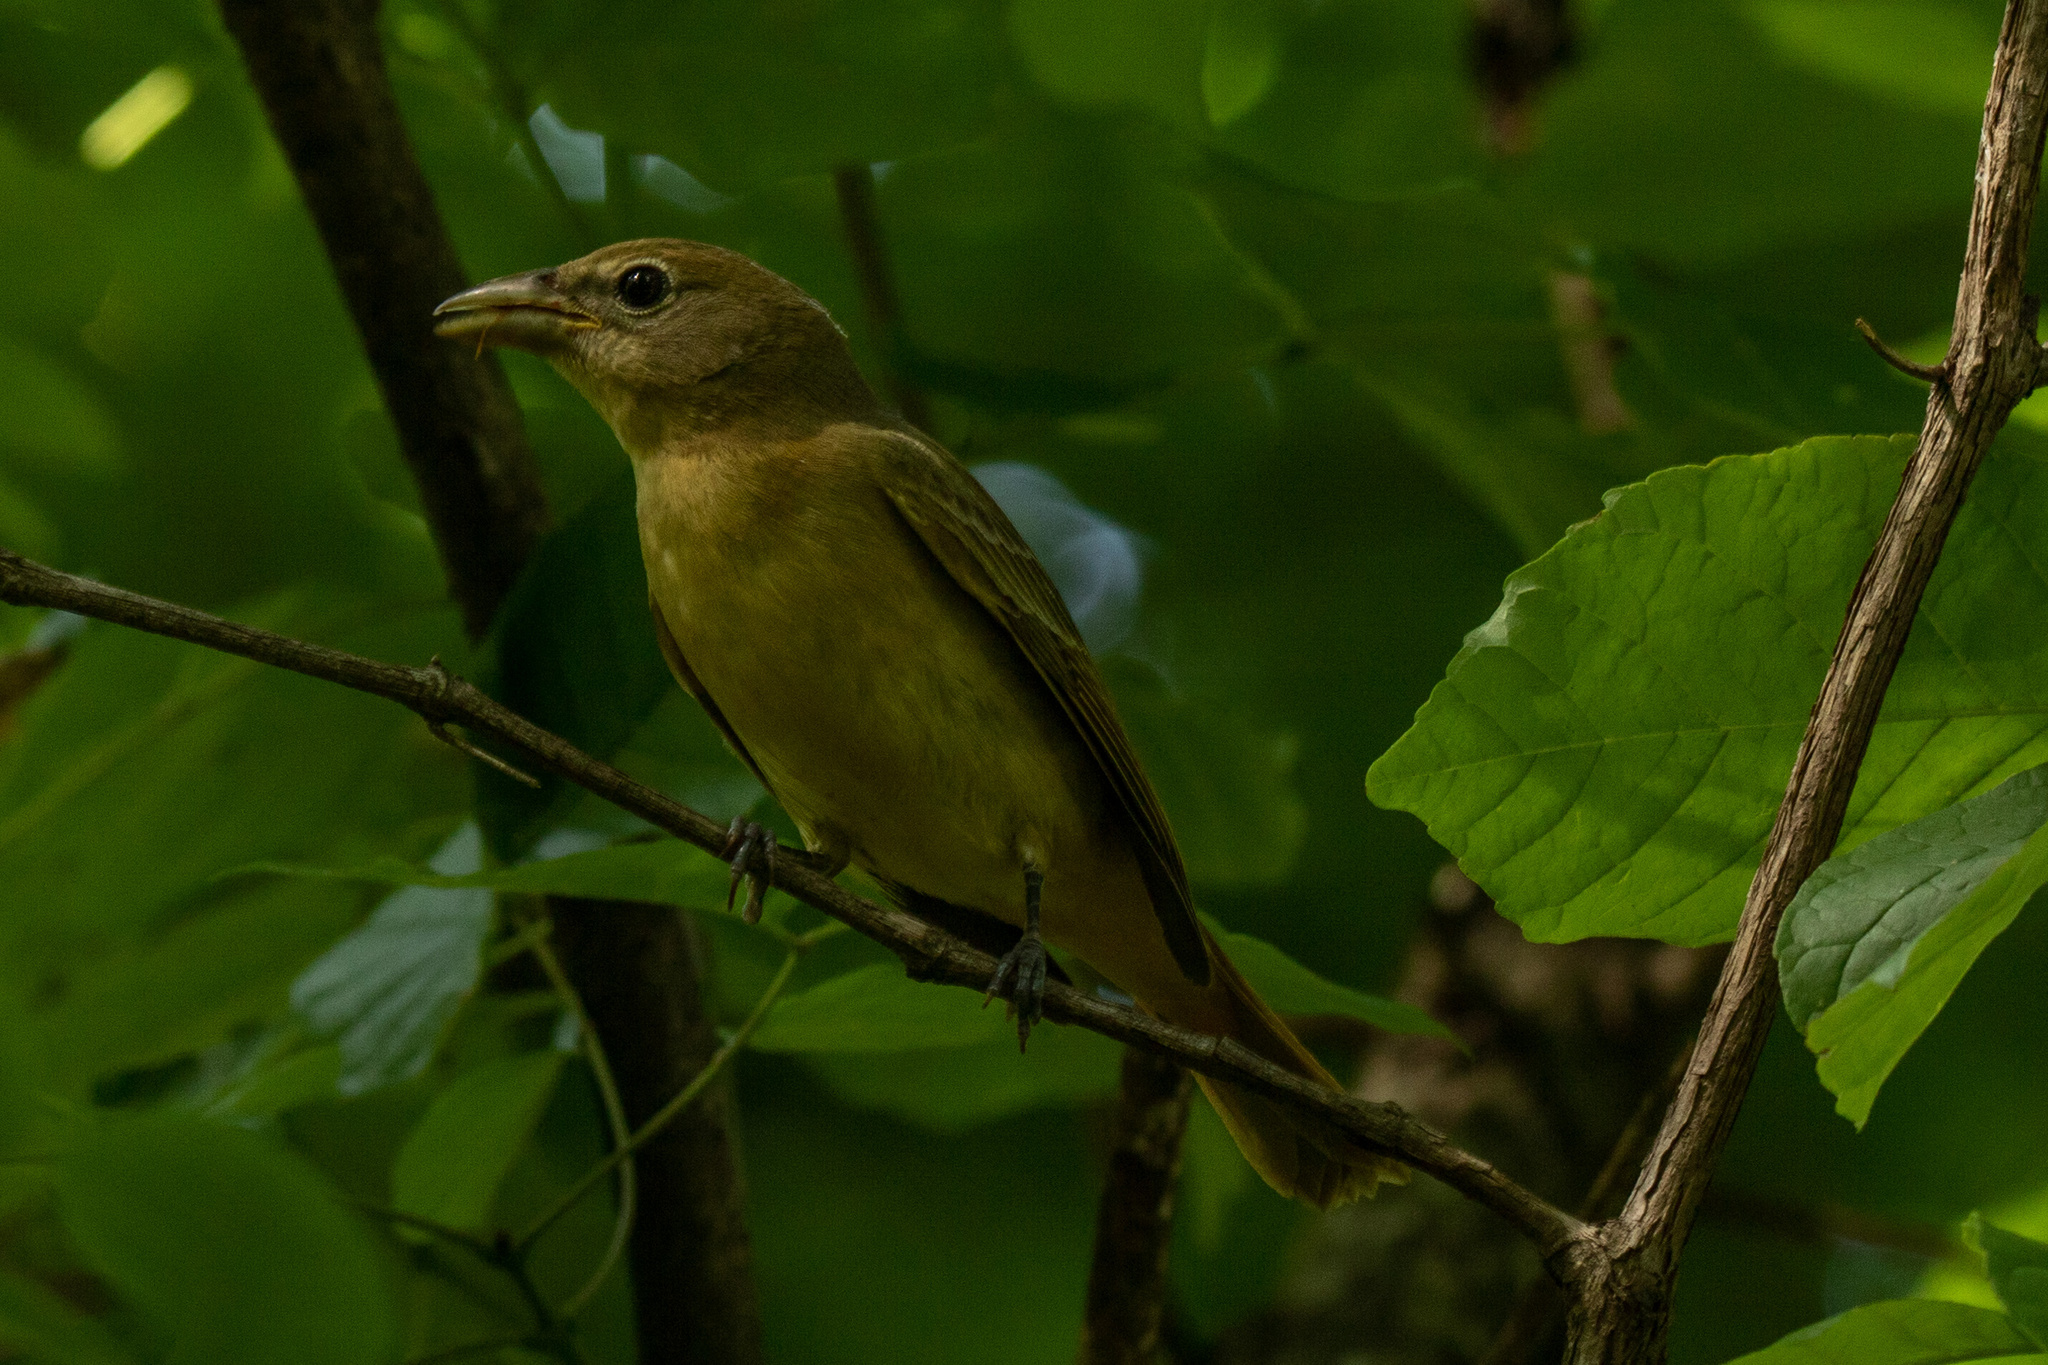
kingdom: Animalia
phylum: Chordata
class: Aves
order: Passeriformes
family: Cardinalidae
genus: Piranga
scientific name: Piranga rubra
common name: Summer tanager
